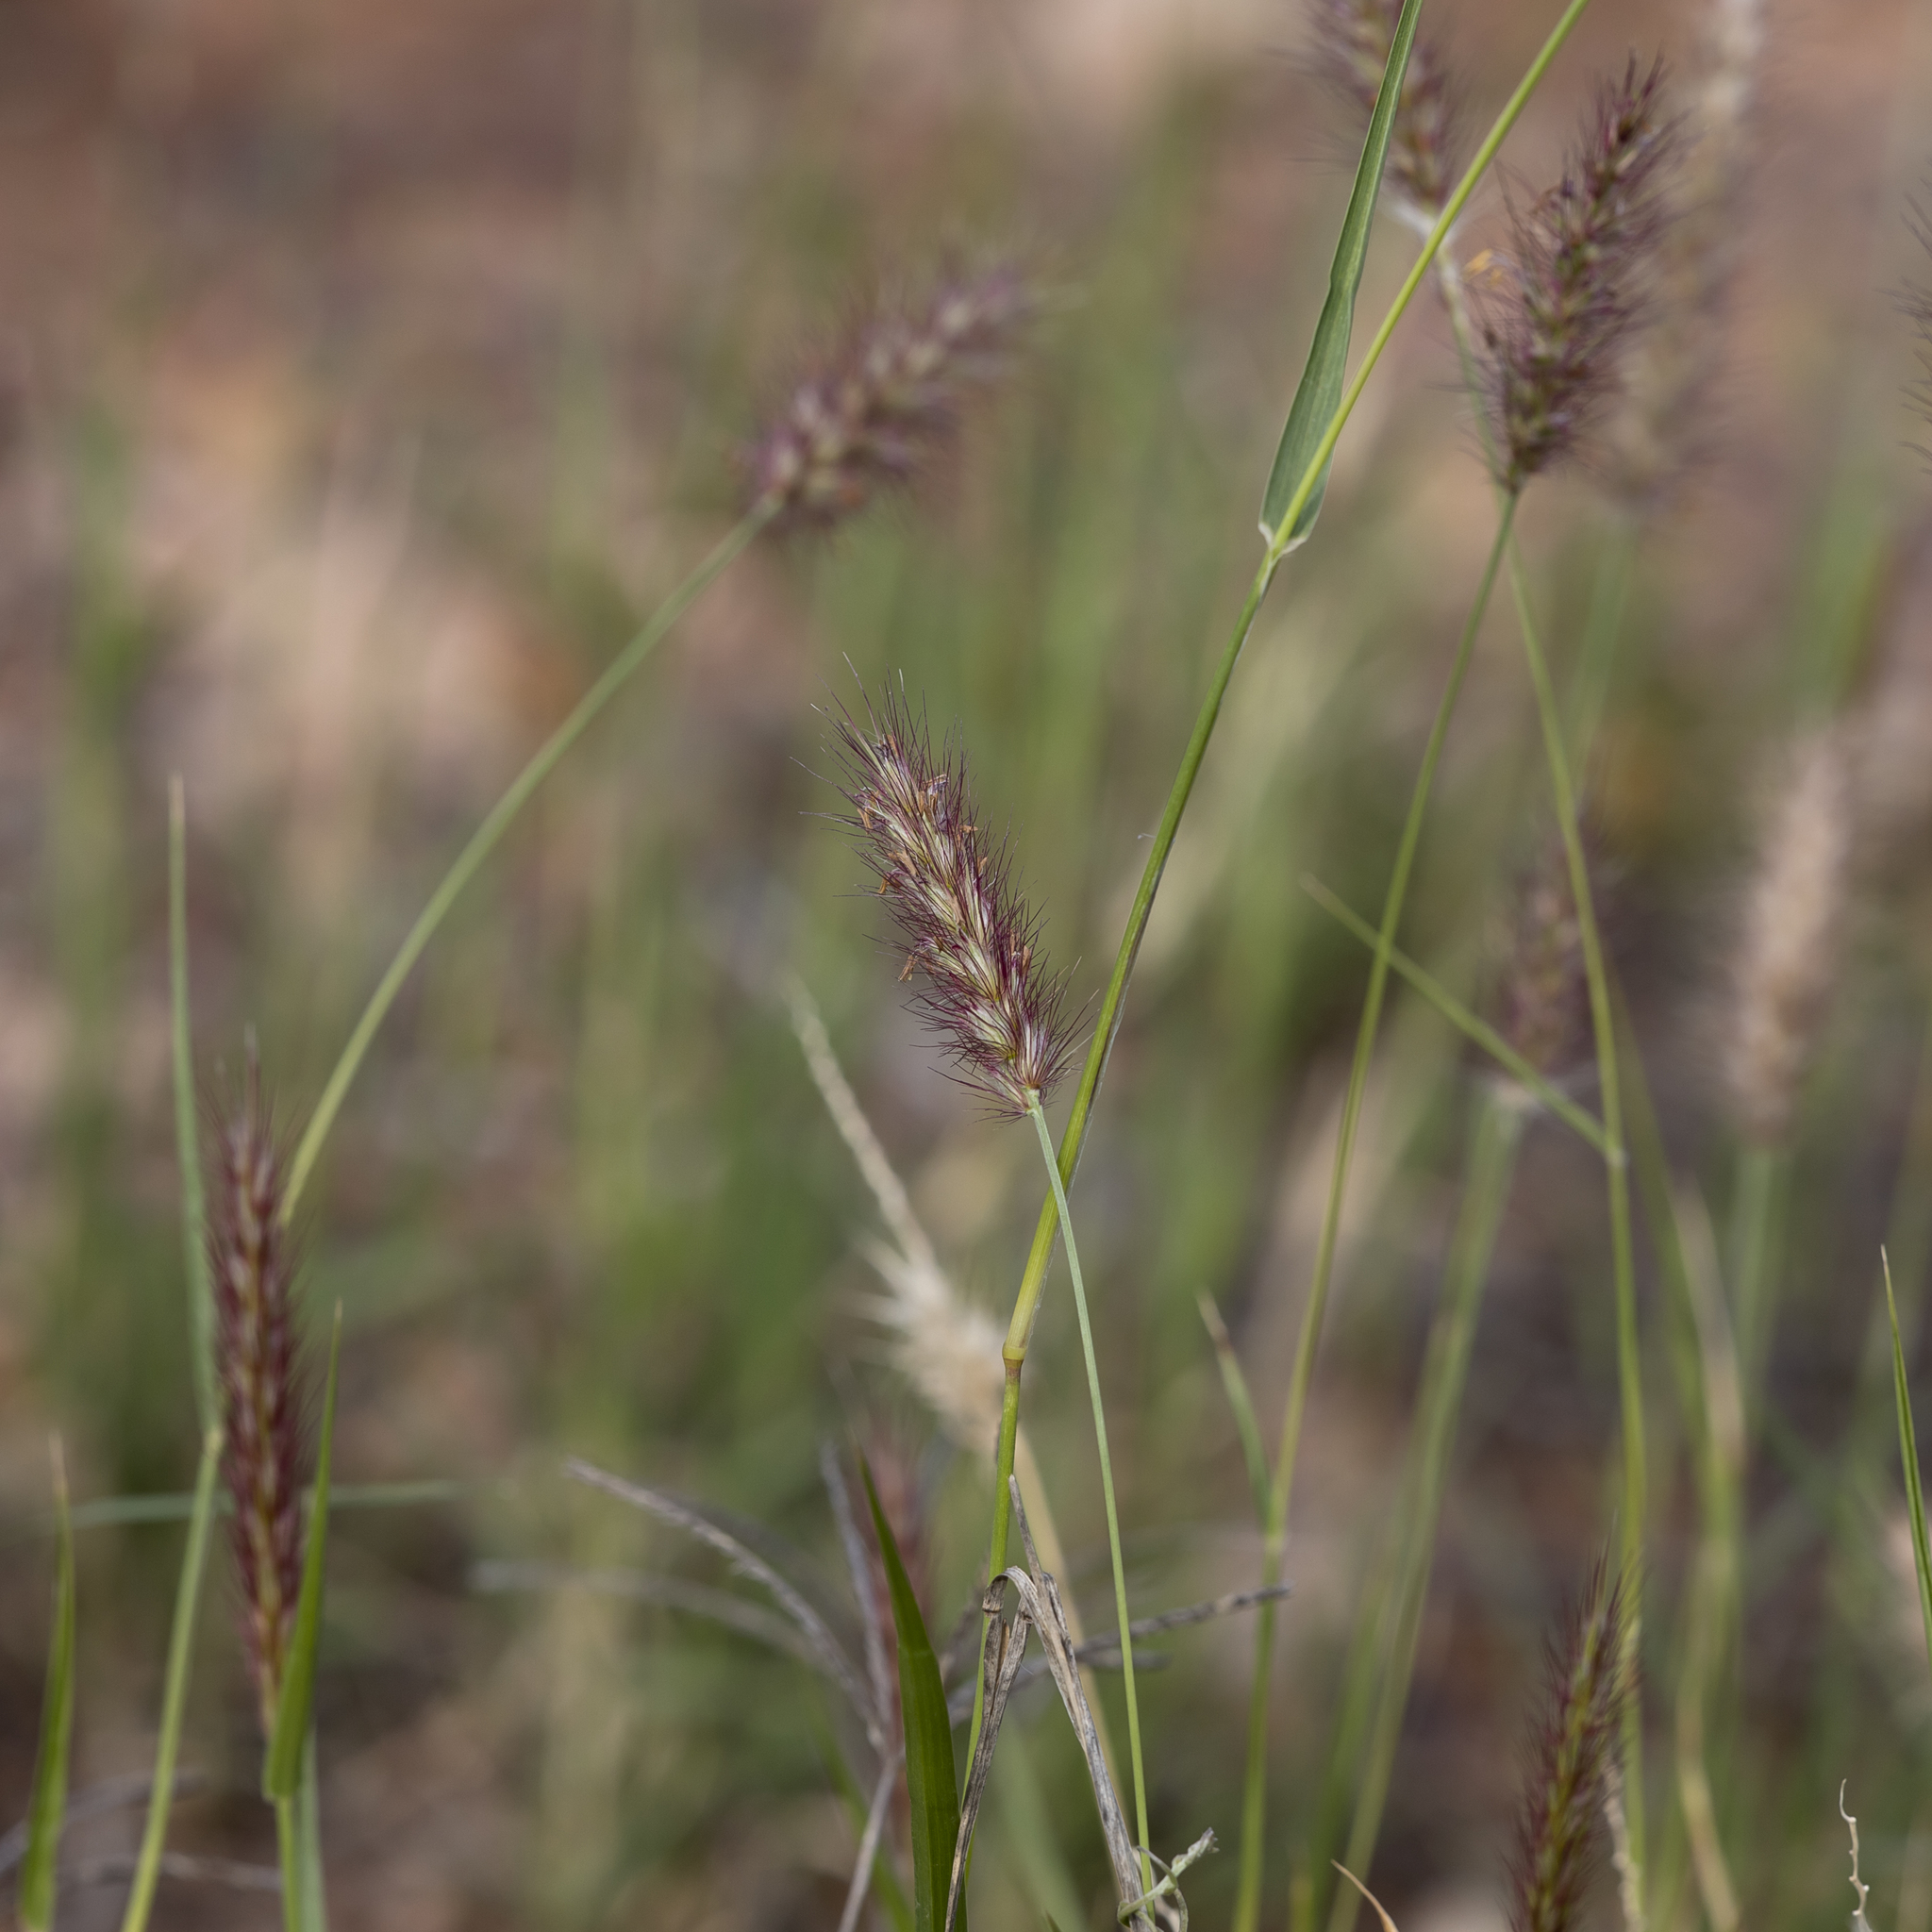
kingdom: Plantae
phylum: Tracheophyta
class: Liliopsida
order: Poales
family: Poaceae
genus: Cenchrus
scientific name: Cenchrus ciliaris
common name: Buffelgrass
